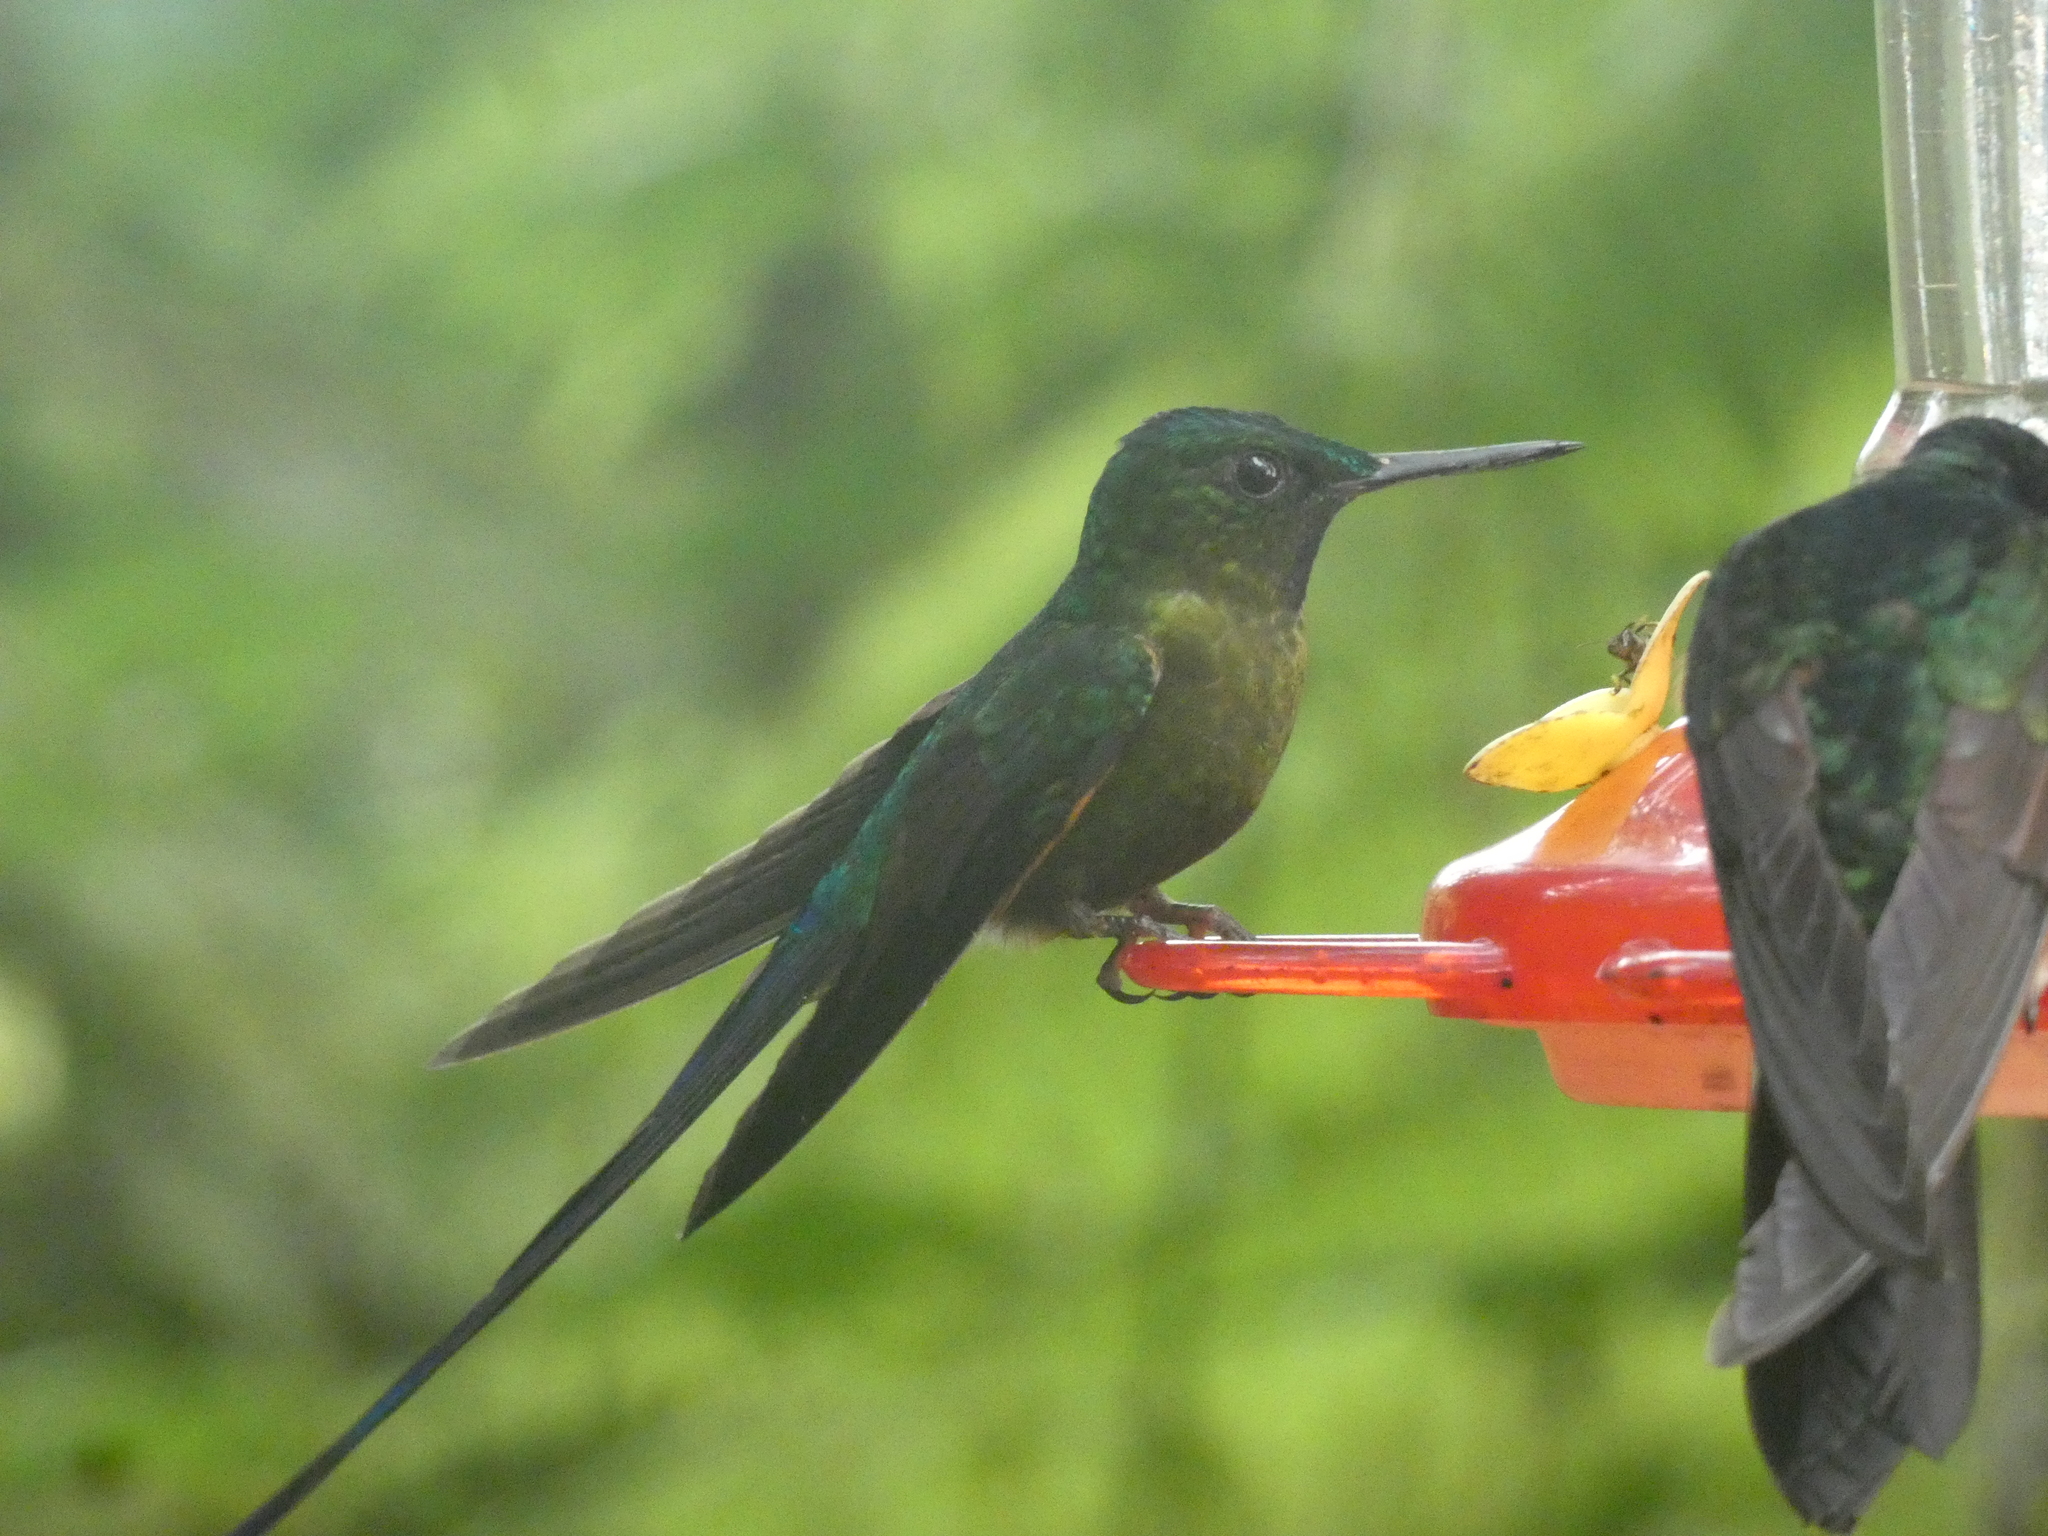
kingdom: Animalia
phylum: Chordata
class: Aves
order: Apodiformes
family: Trochilidae
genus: Aglaiocercus
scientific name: Aglaiocercus coelestis
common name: Violet-tailed sylph
